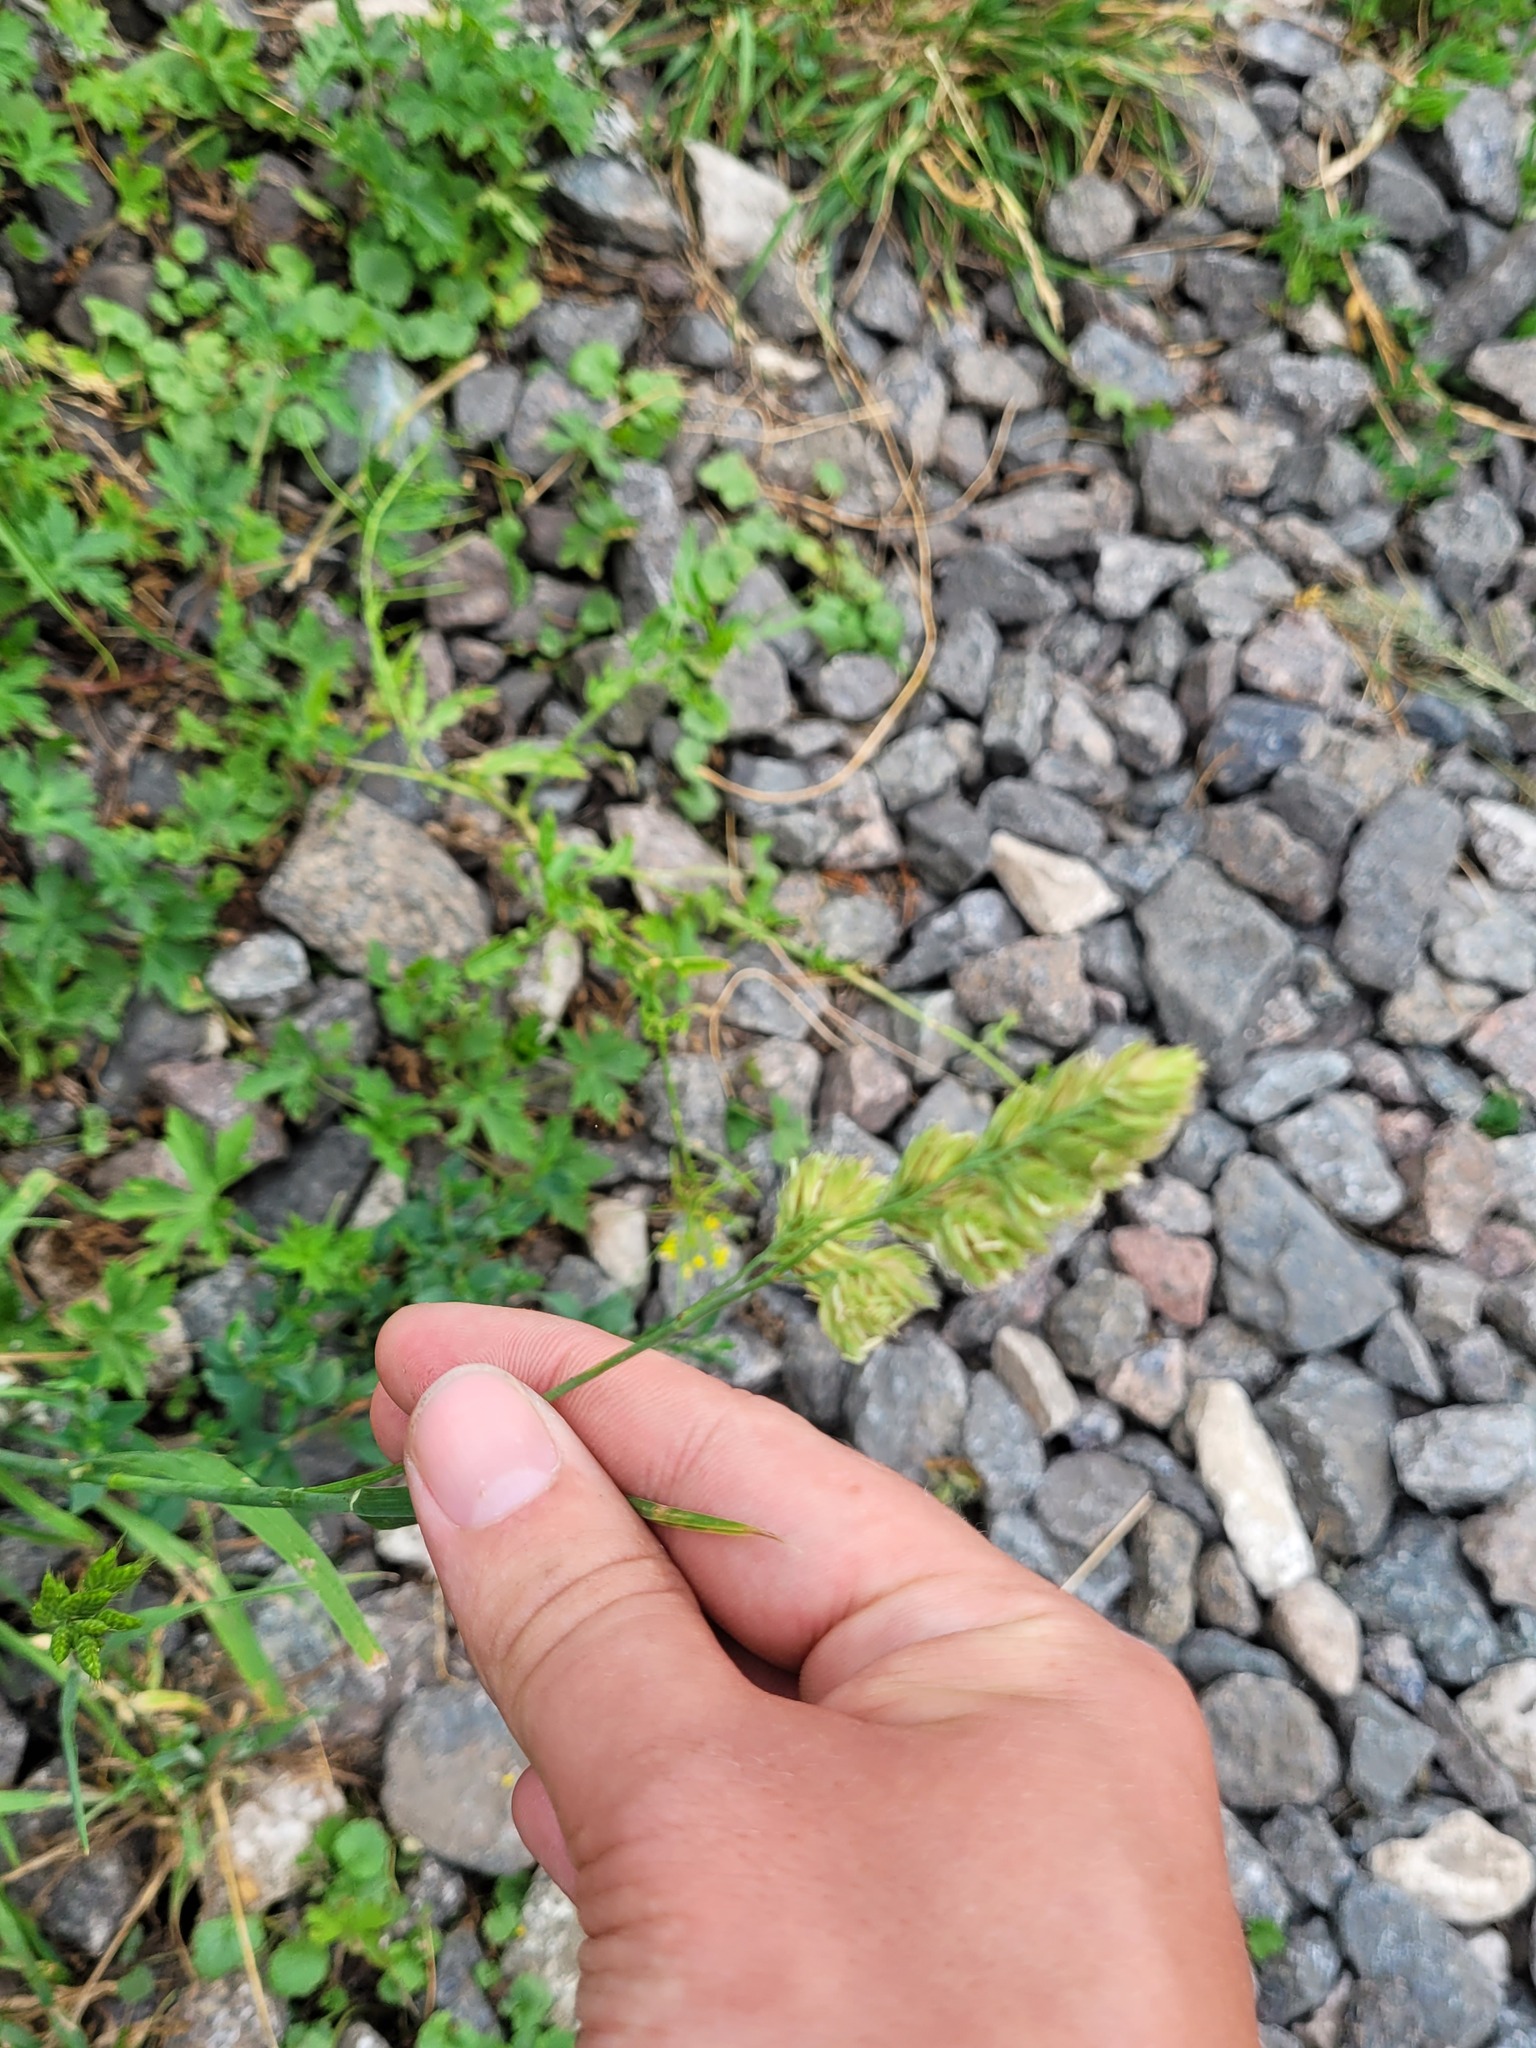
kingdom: Plantae
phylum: Tracheophyta
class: Liliopsida
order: Poales
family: Poaceae
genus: Dactylis
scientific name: Dactylis glomerata
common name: Orchardgrass
